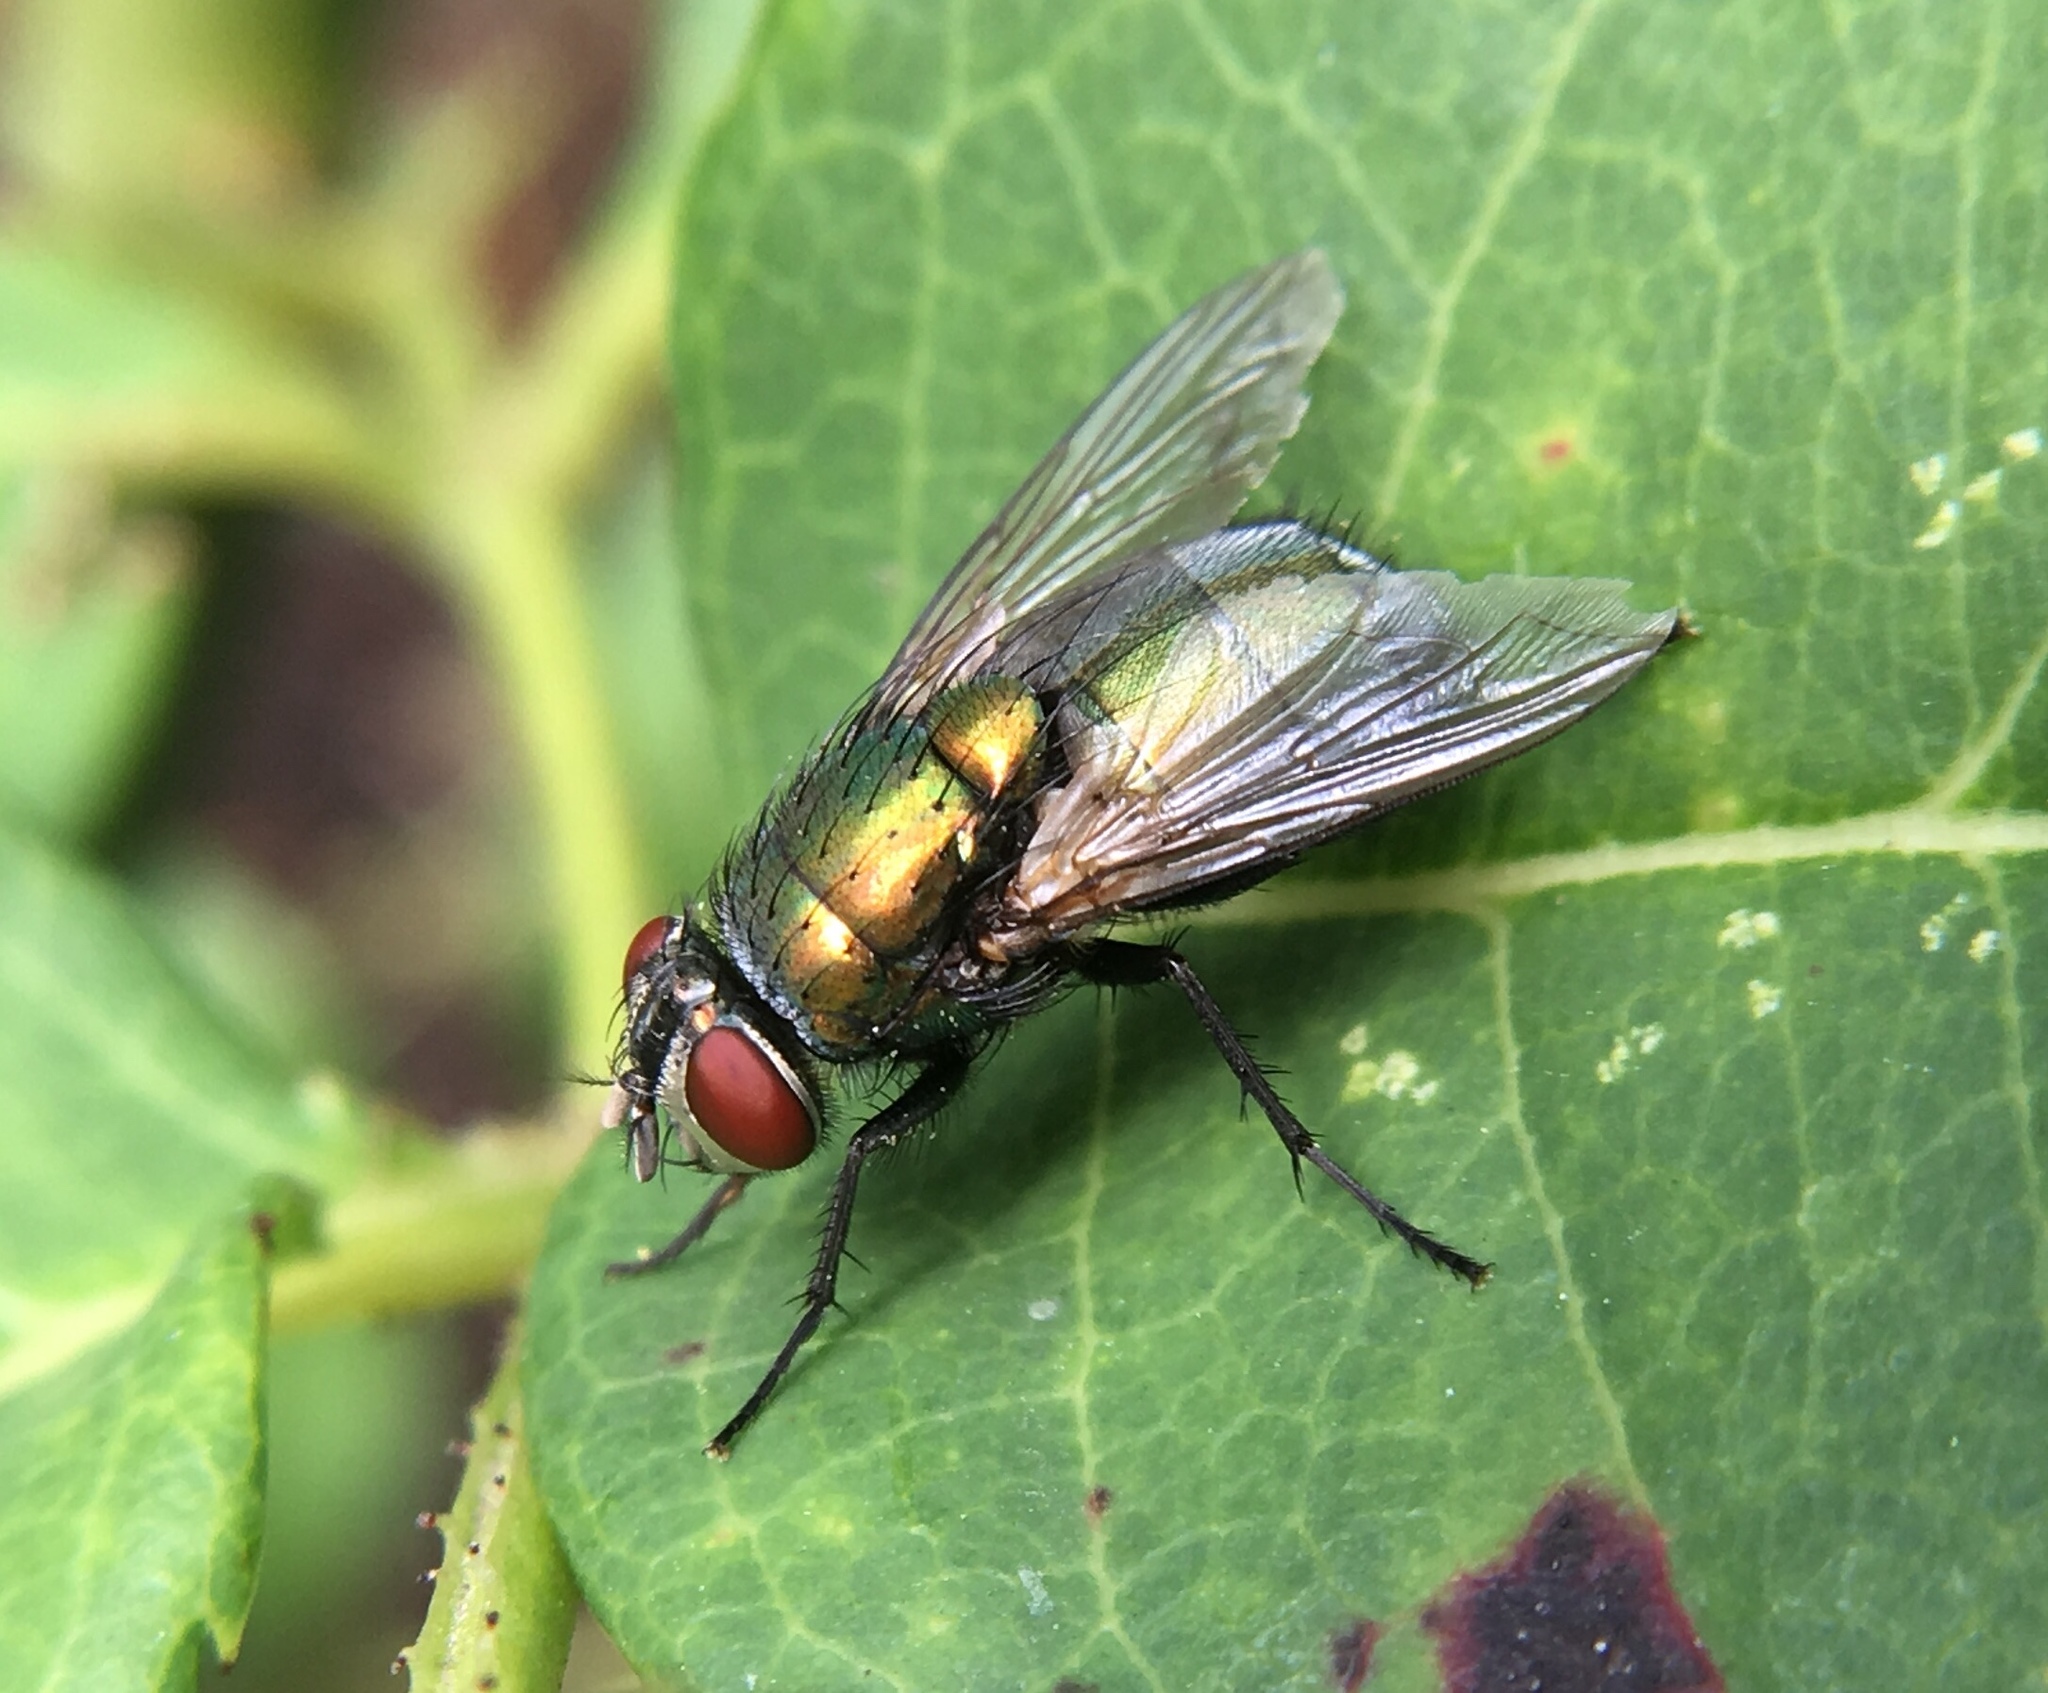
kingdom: Animalia
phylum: Arthropoda
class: Insecta
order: Diptera
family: Calliphoridae
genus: Lucilia
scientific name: Lucilia sericata
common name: Blow fly
